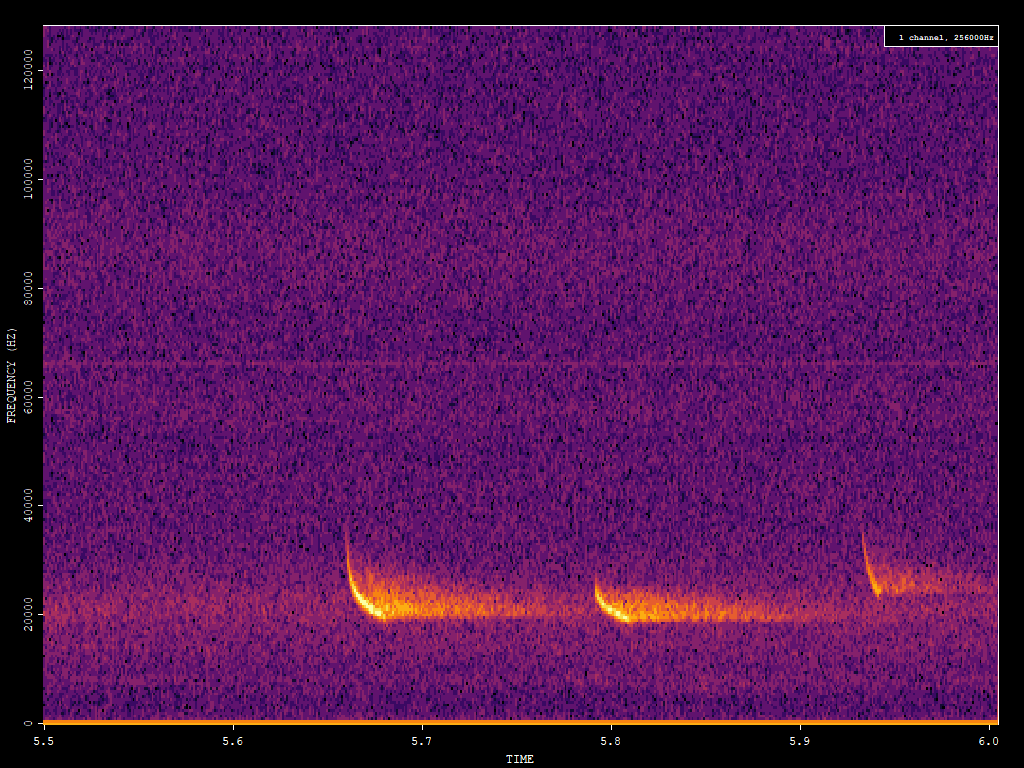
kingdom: Animalia
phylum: Chordata
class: Mammalia
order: Chiroptera
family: Vespertilionidae
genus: Nyctalus
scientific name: Nyctalus noctula
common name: Noctule
